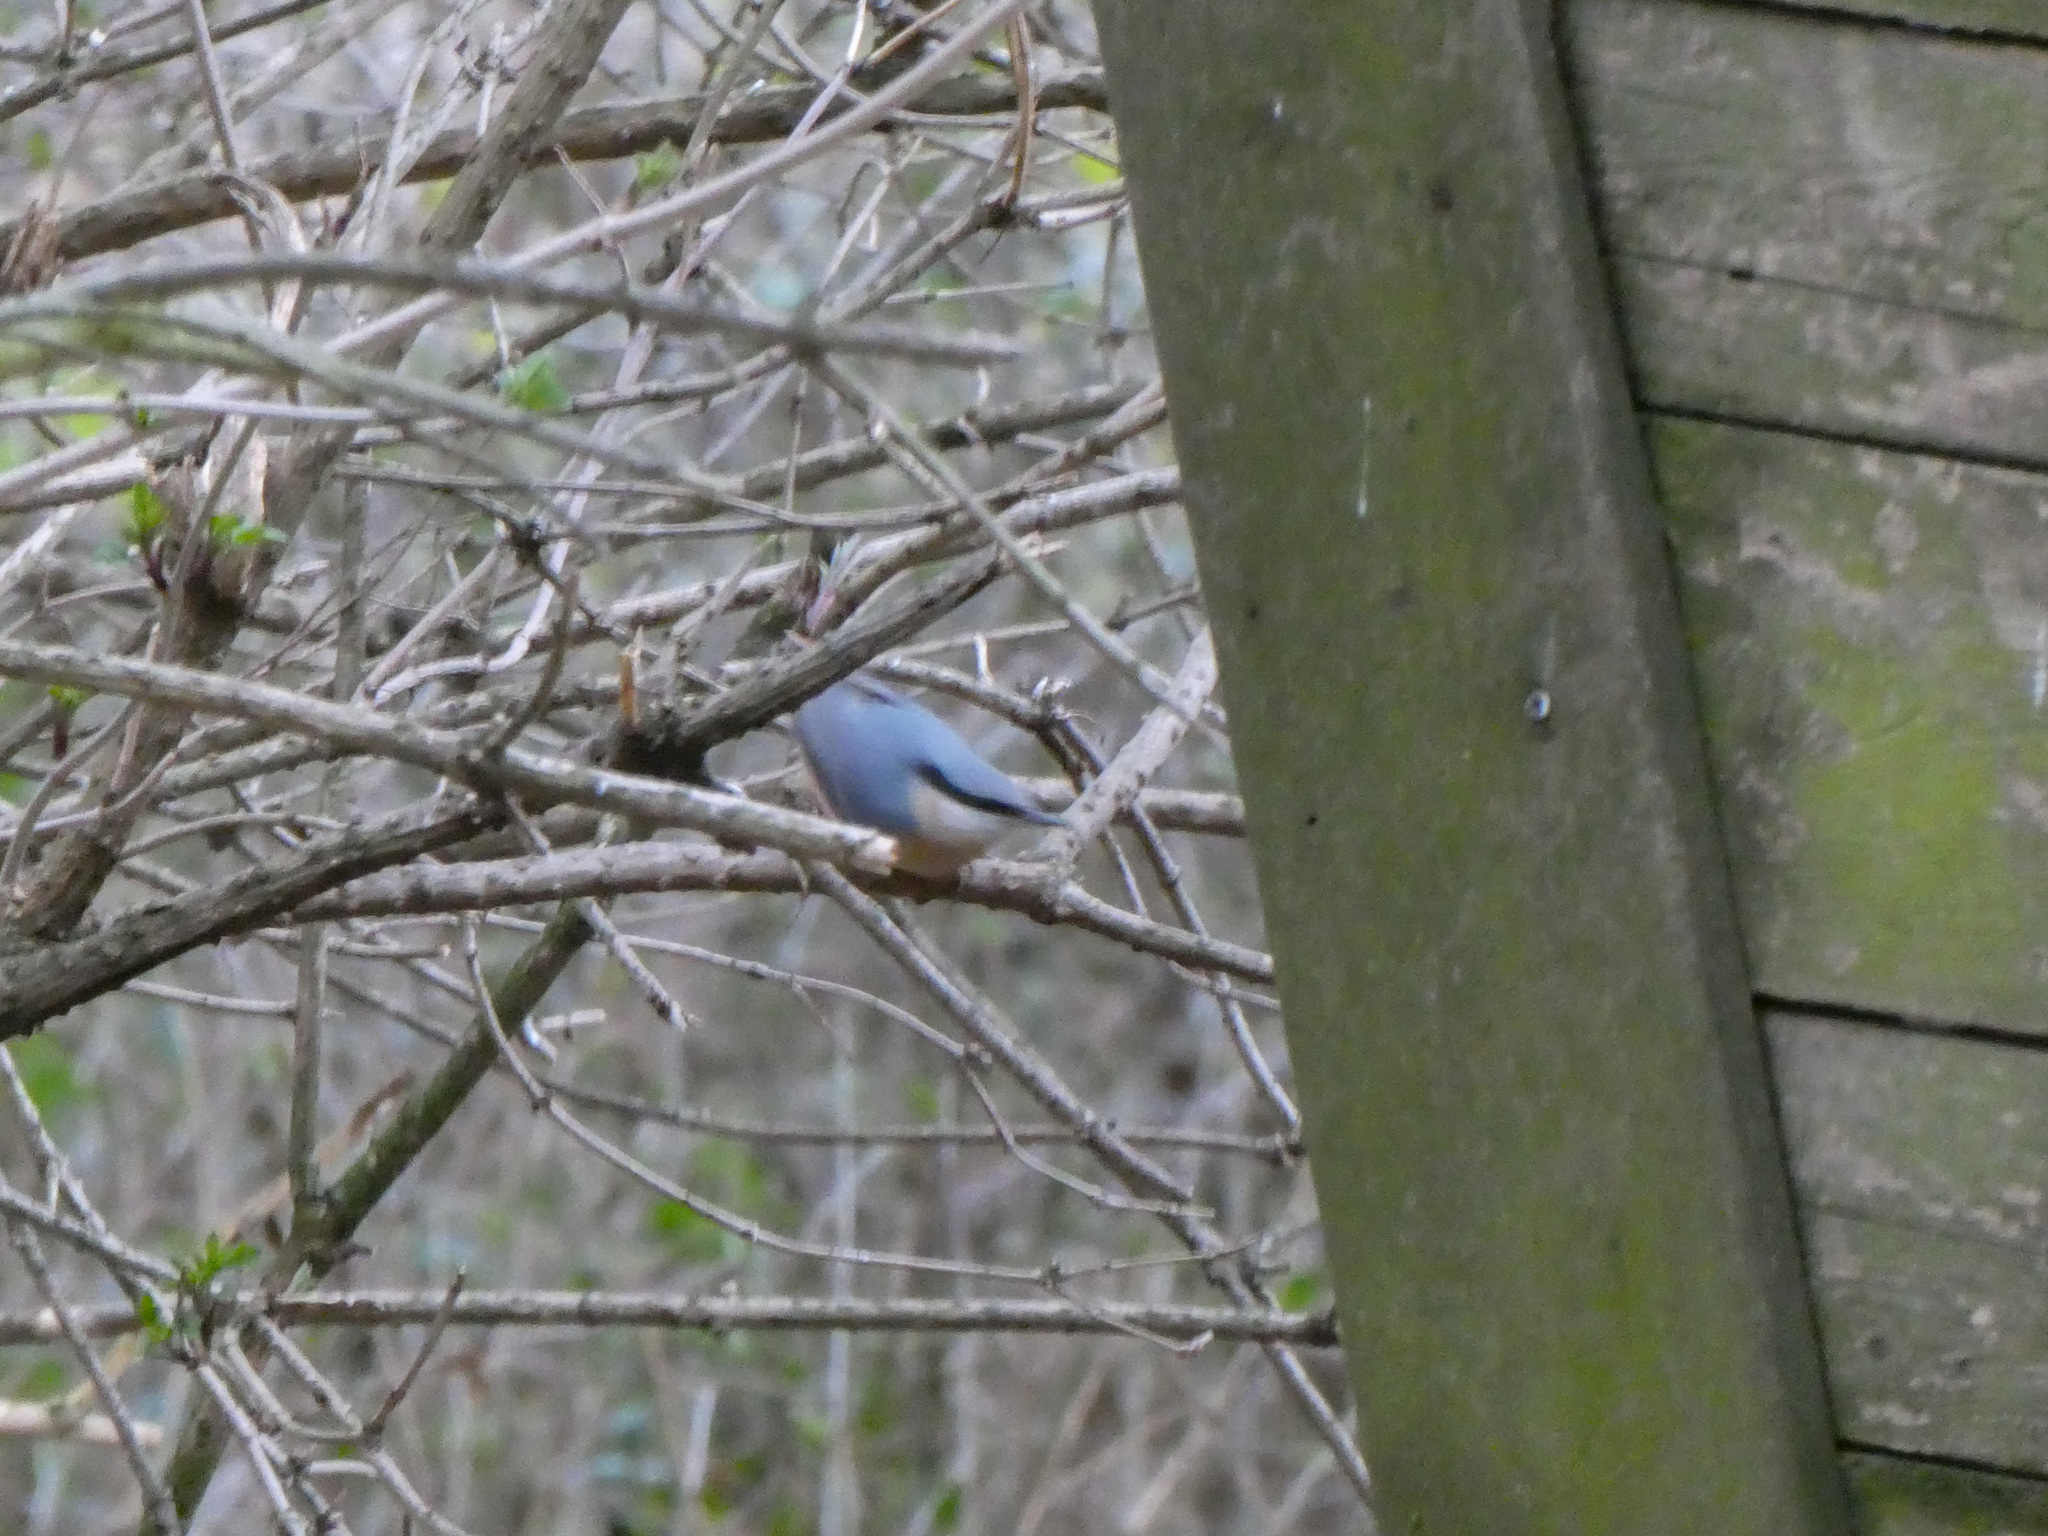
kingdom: Animalia
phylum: Chordata
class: Aves
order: Passeriformes
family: Sittidae
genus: Sitta
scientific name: Sitta europaea
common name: Eurasian nuthatch
